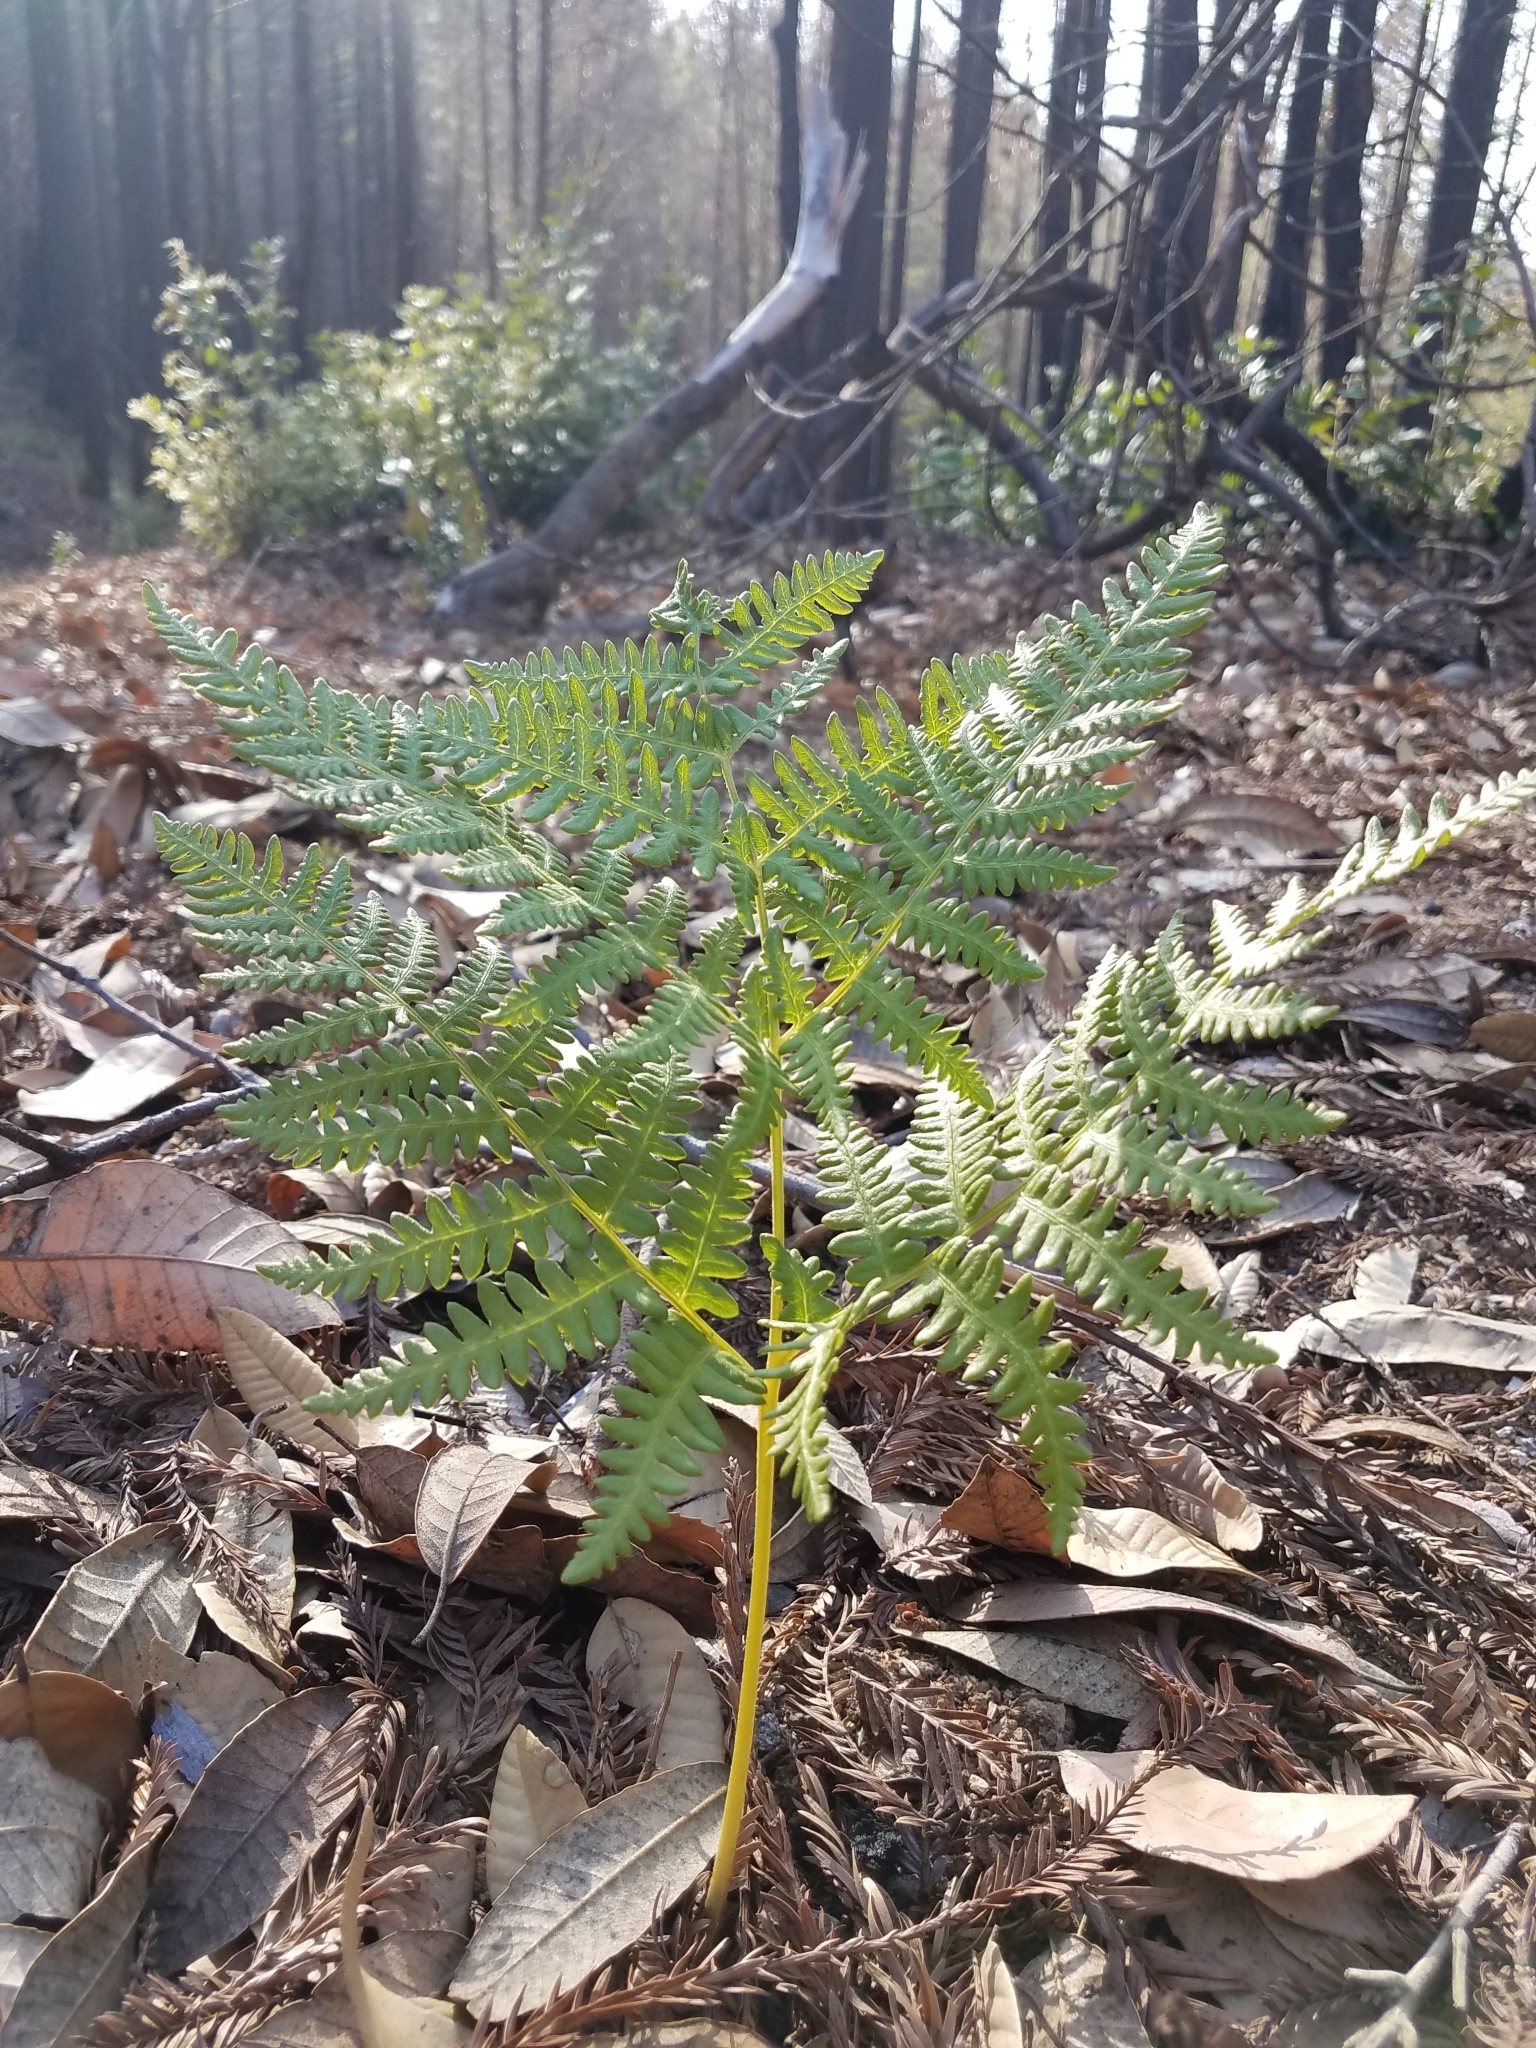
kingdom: Plantae
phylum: Tracheophyta
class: Polypodiopsida
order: Polypodiales
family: Dennstaedtiaceae
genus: Pteridium
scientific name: Pteridium aquilinum
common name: Bracken
